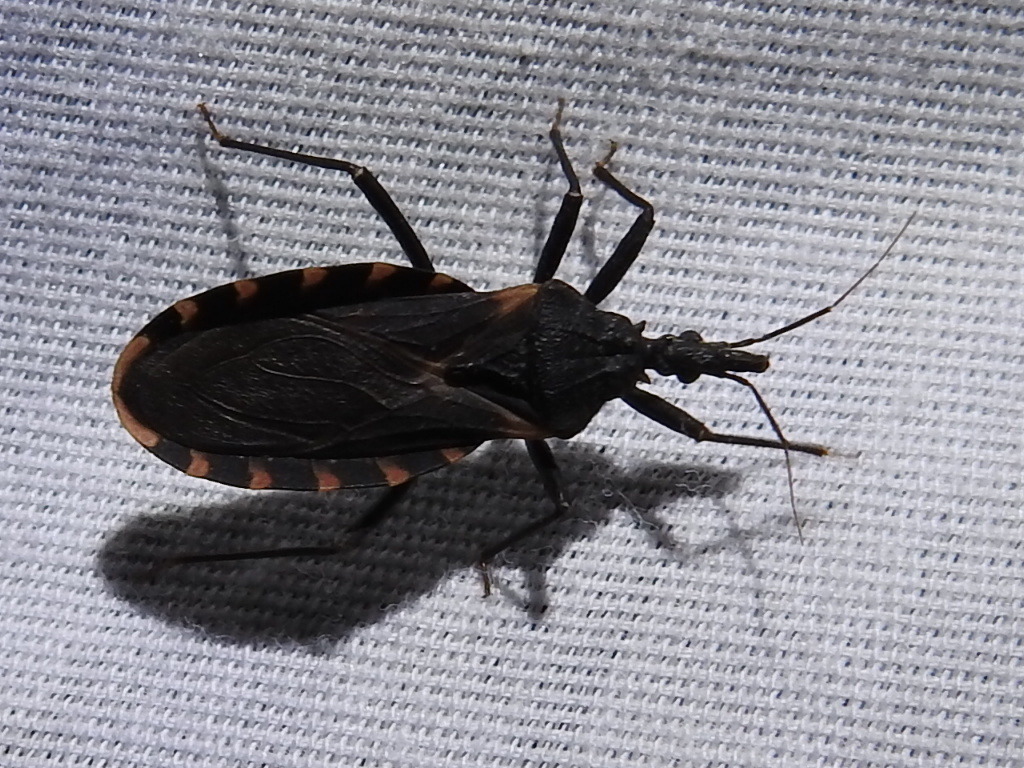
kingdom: Animalia
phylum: Arthropoda
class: Insecta
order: Hemiptera
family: Reduviidae
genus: Triatoma
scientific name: Triatoma gerstaeckeri
